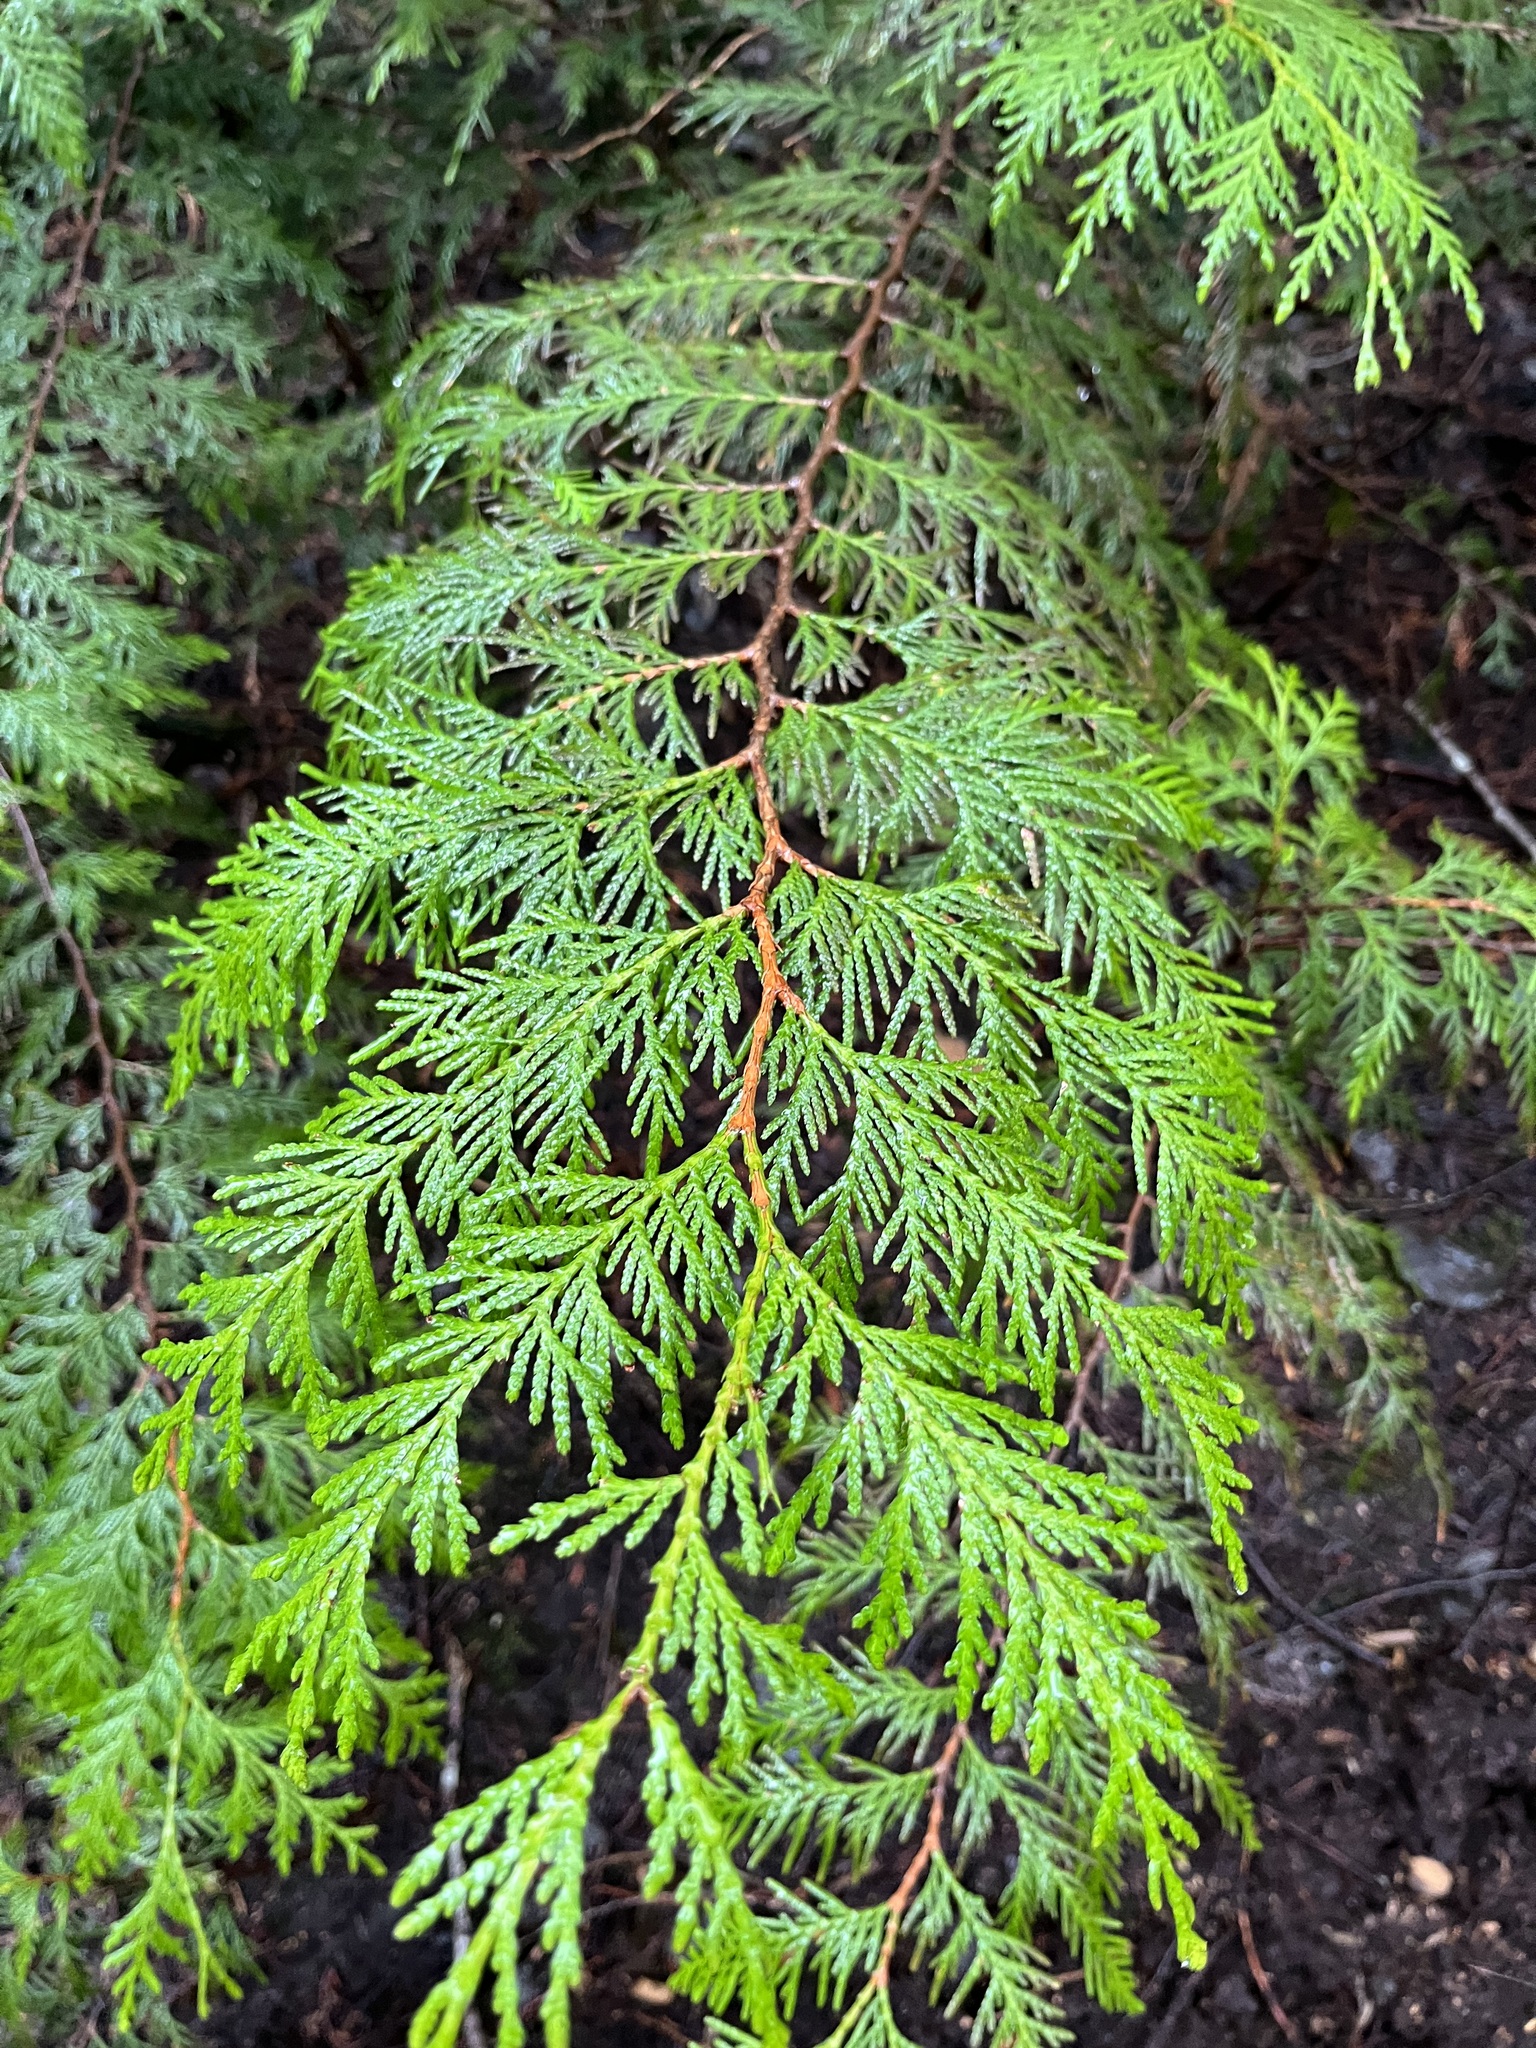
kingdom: Plantae
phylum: Tracheophyta
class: Pinopsida
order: Pinales
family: Cupressaceae
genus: Thuja
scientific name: Thuja plicata
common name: Western red-cedar
